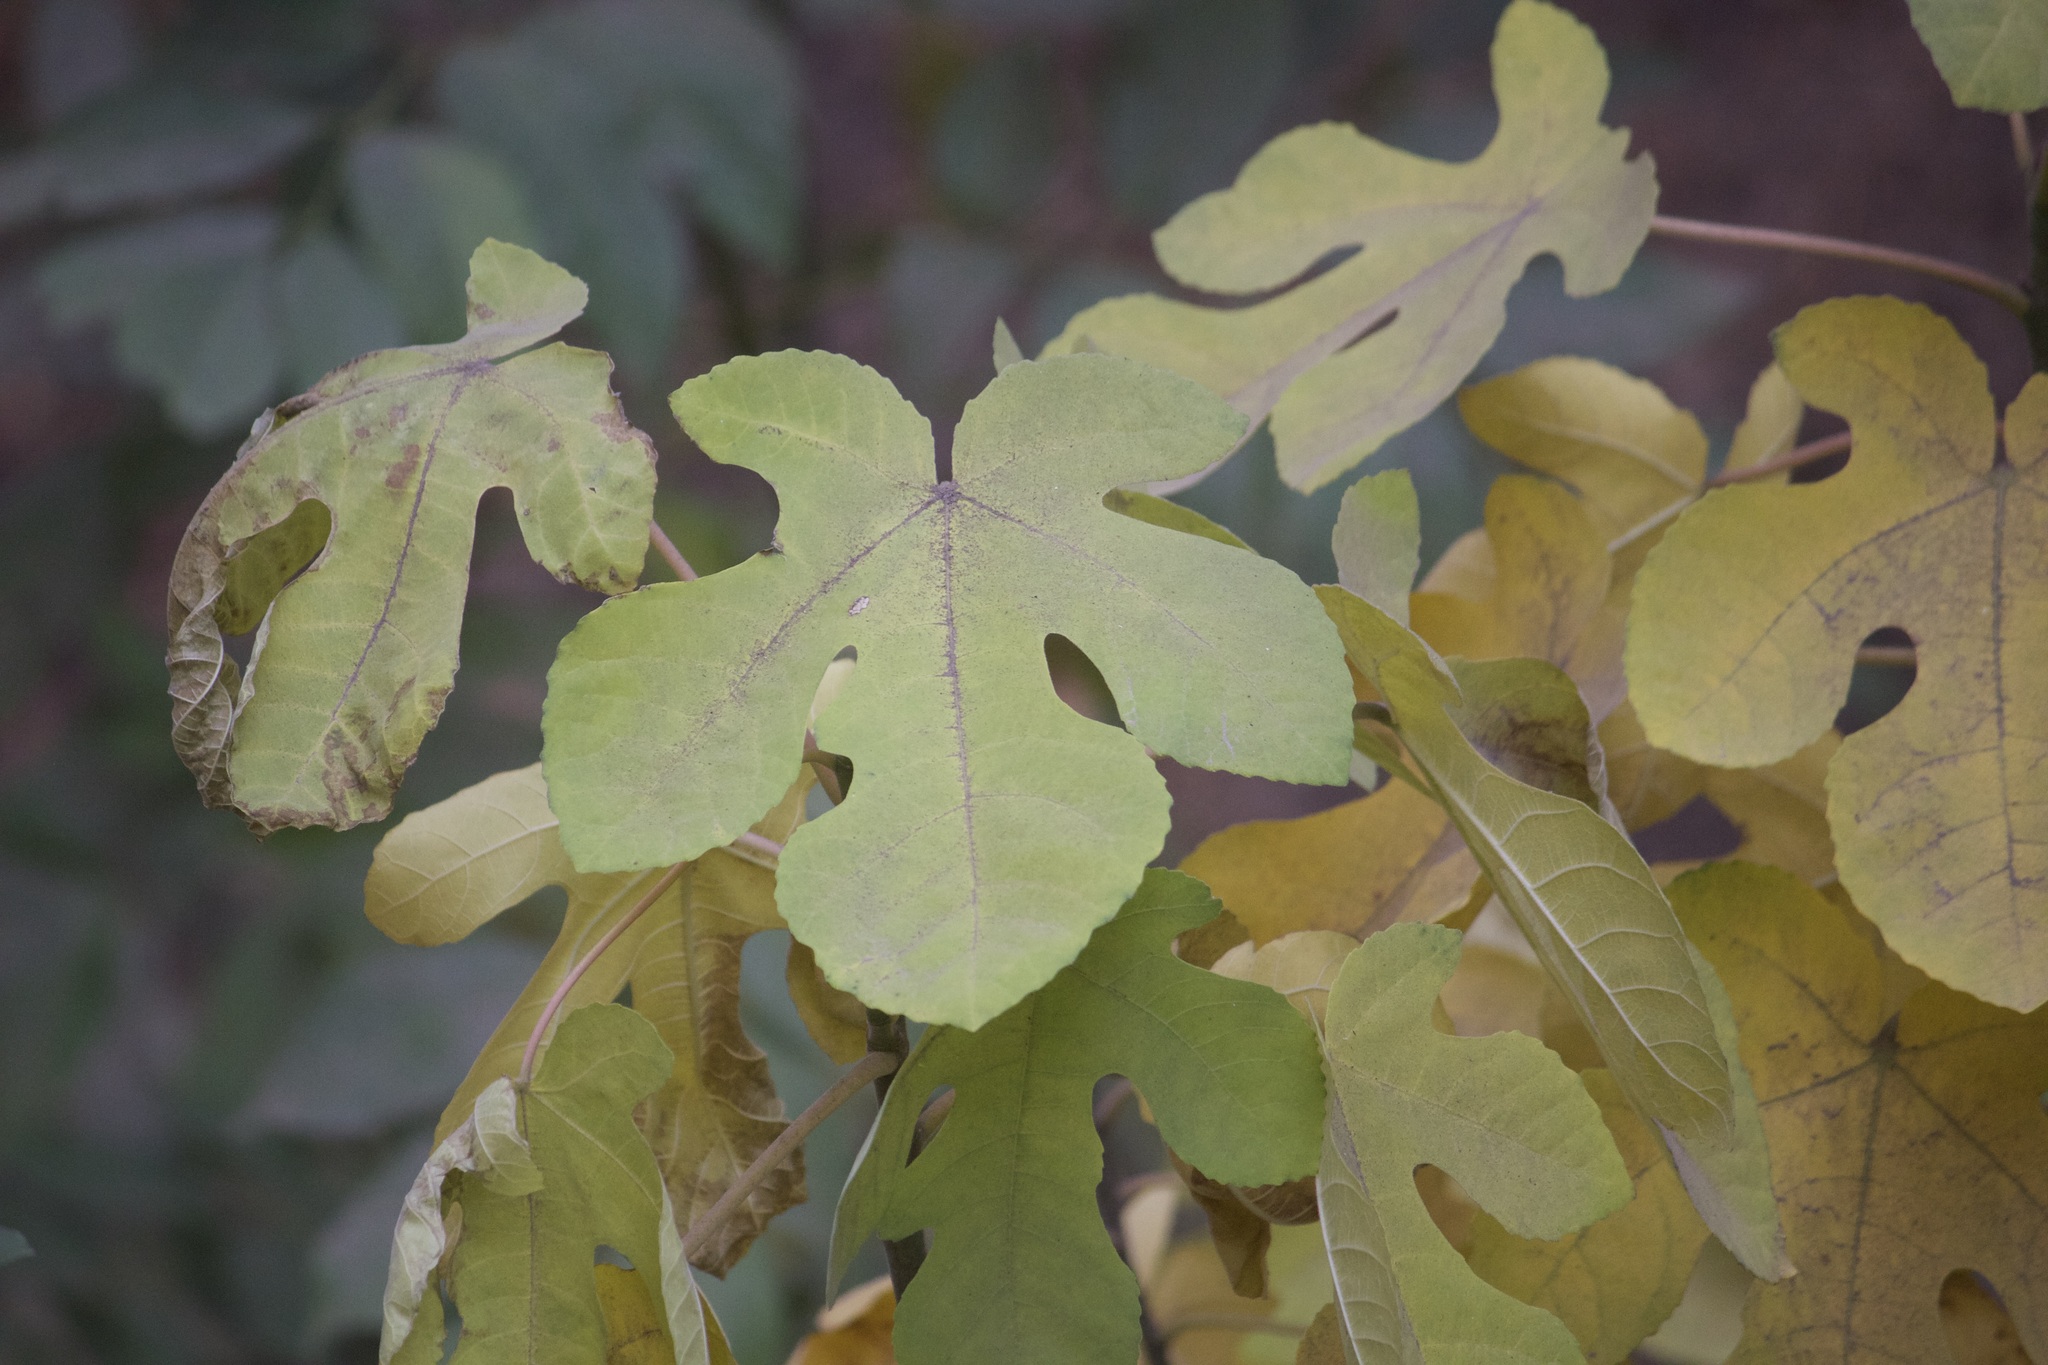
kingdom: Plantae
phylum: Tracheophyta
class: Magnoliopsida
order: Rosales
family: Moraceae
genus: Ficus
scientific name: Ficus carica
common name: Fig
